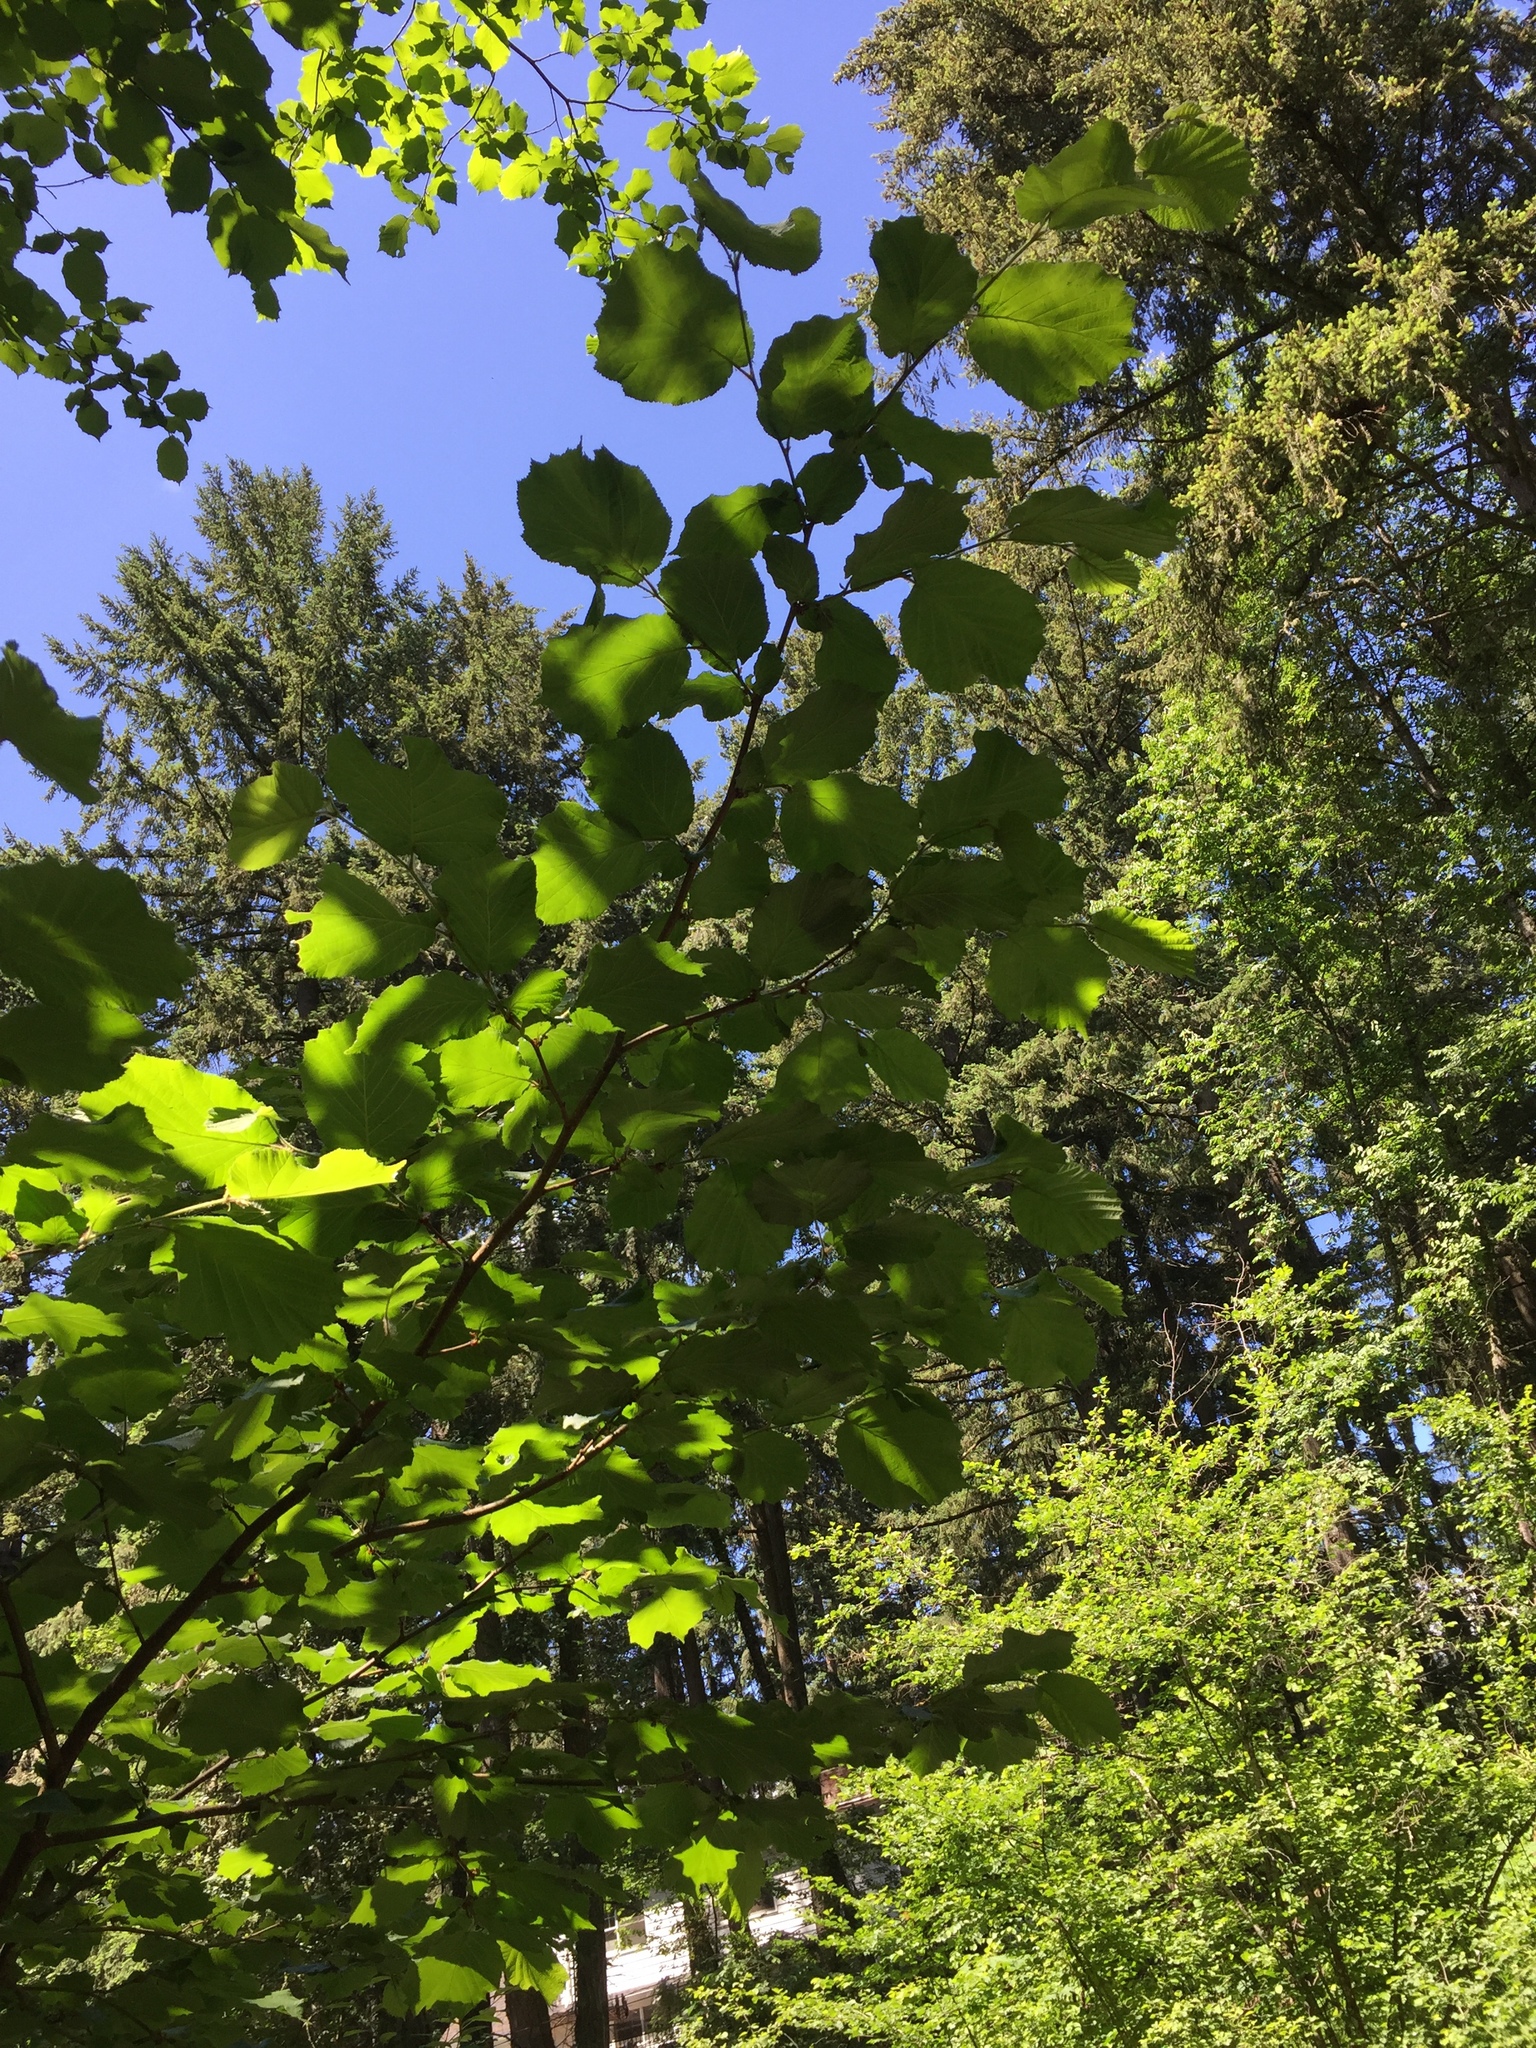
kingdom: Plantae
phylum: Tracheophyta
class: Magnoliopsida
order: Fagales
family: Betulaceae
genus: Corylus
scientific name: Corylus cornuta
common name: Beaked hazel
